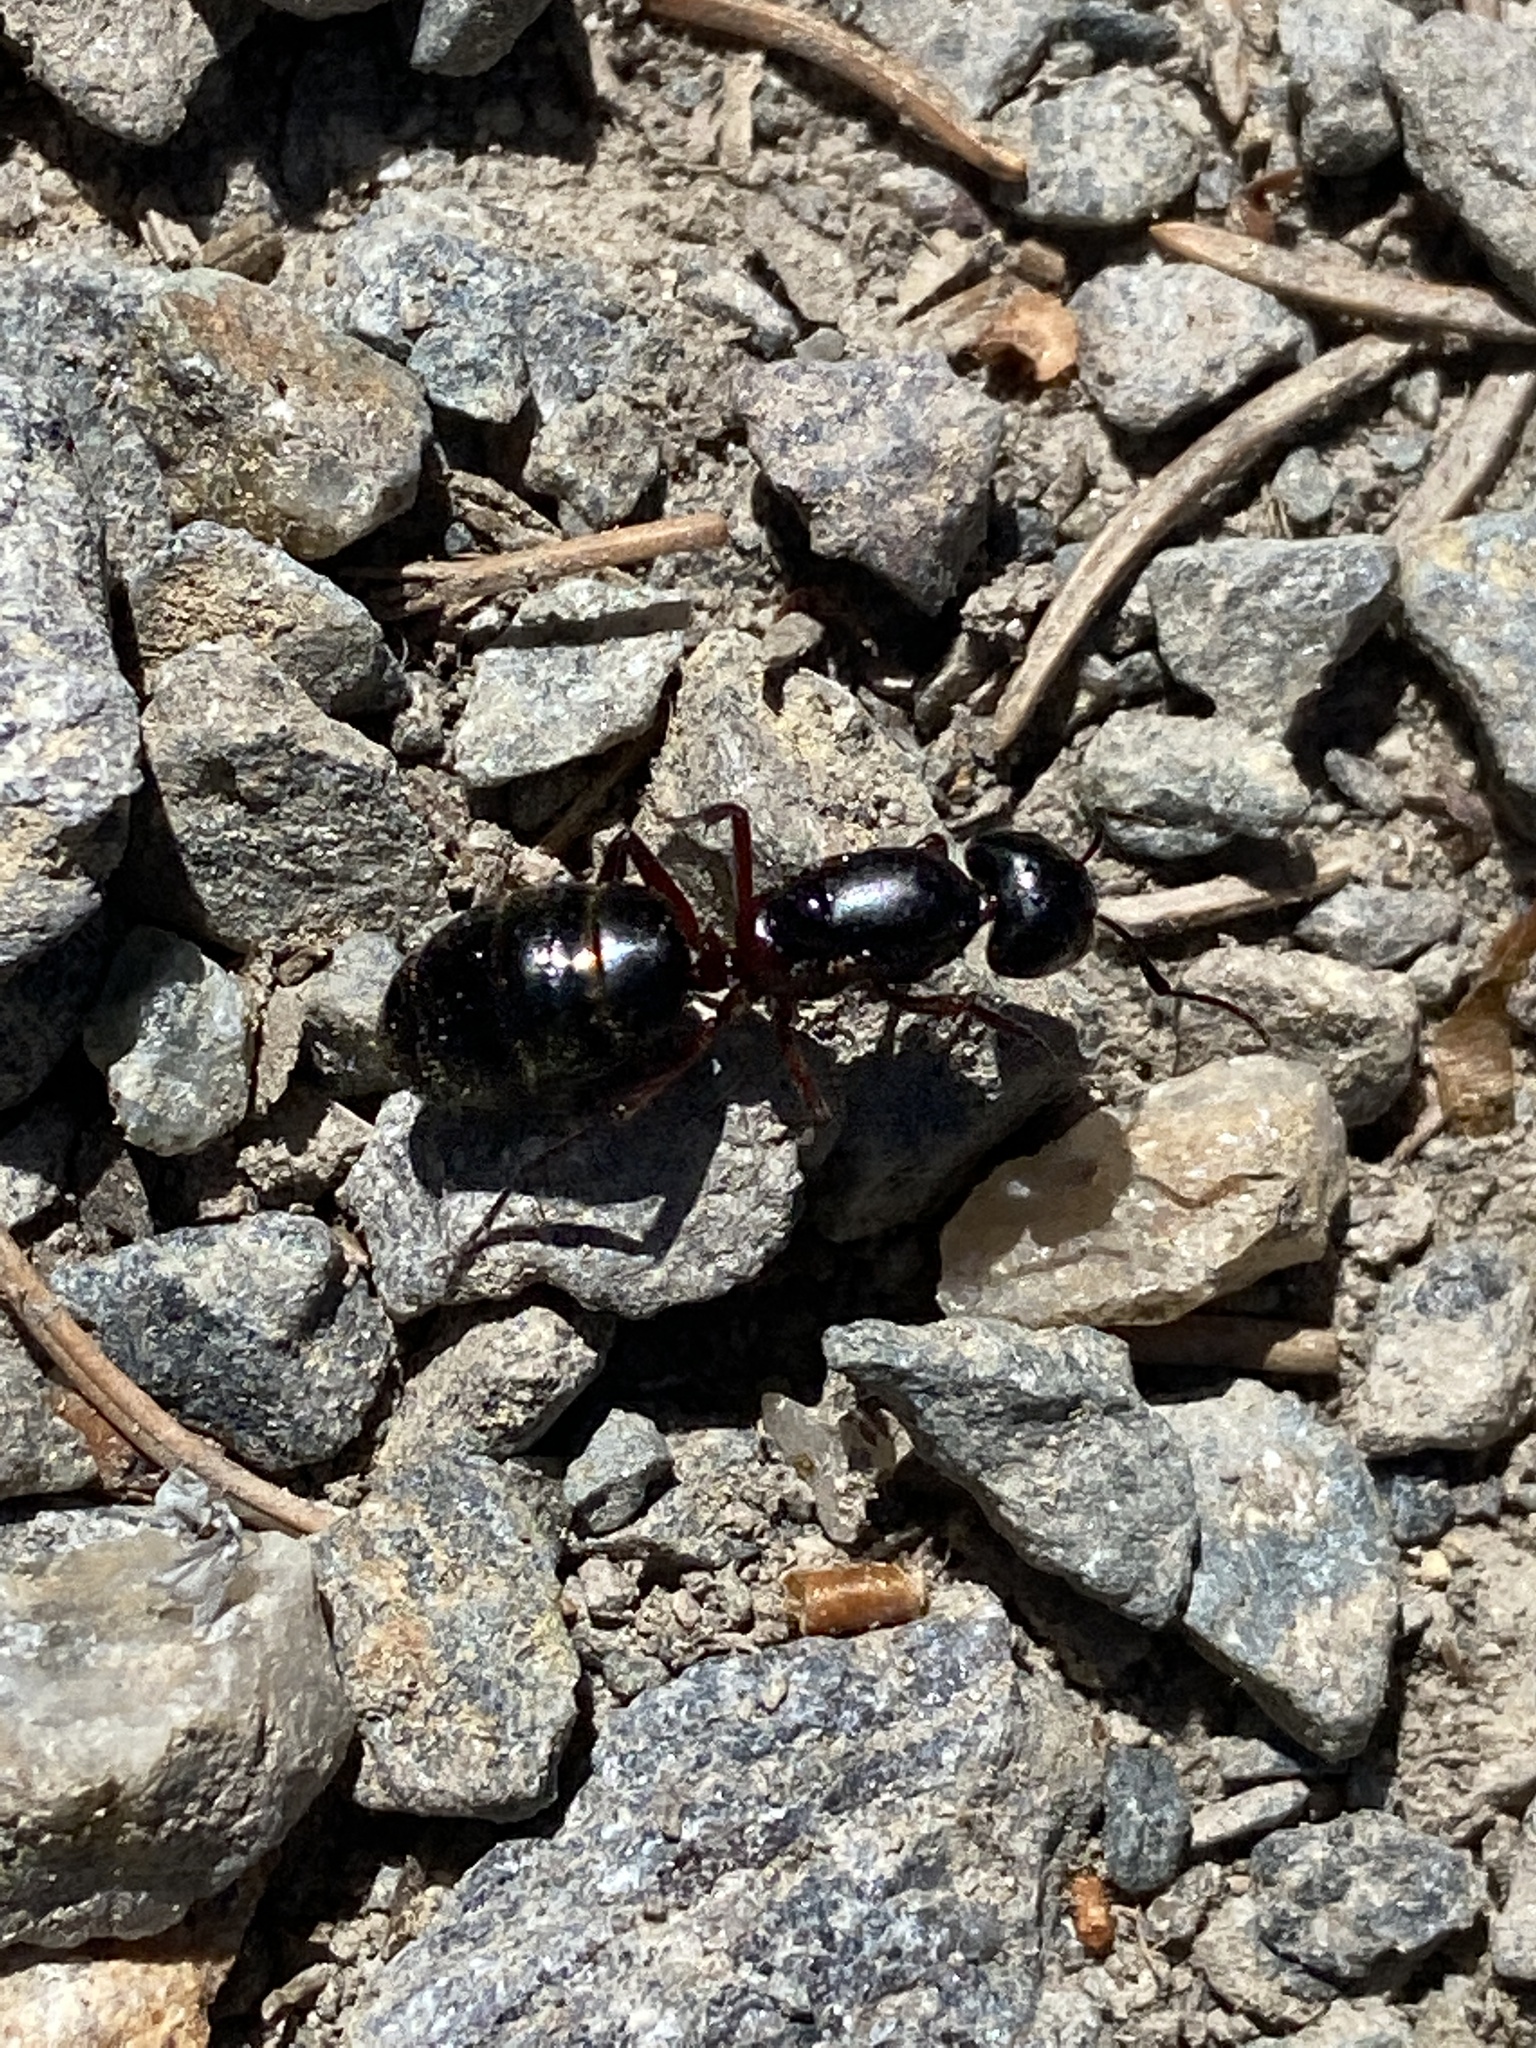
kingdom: Animalia
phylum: Arthropoda
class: Insecta
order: Hymenoptera
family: Formicidae
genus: Camponotus
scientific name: Camponotus herculeanus
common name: Hercules ant
